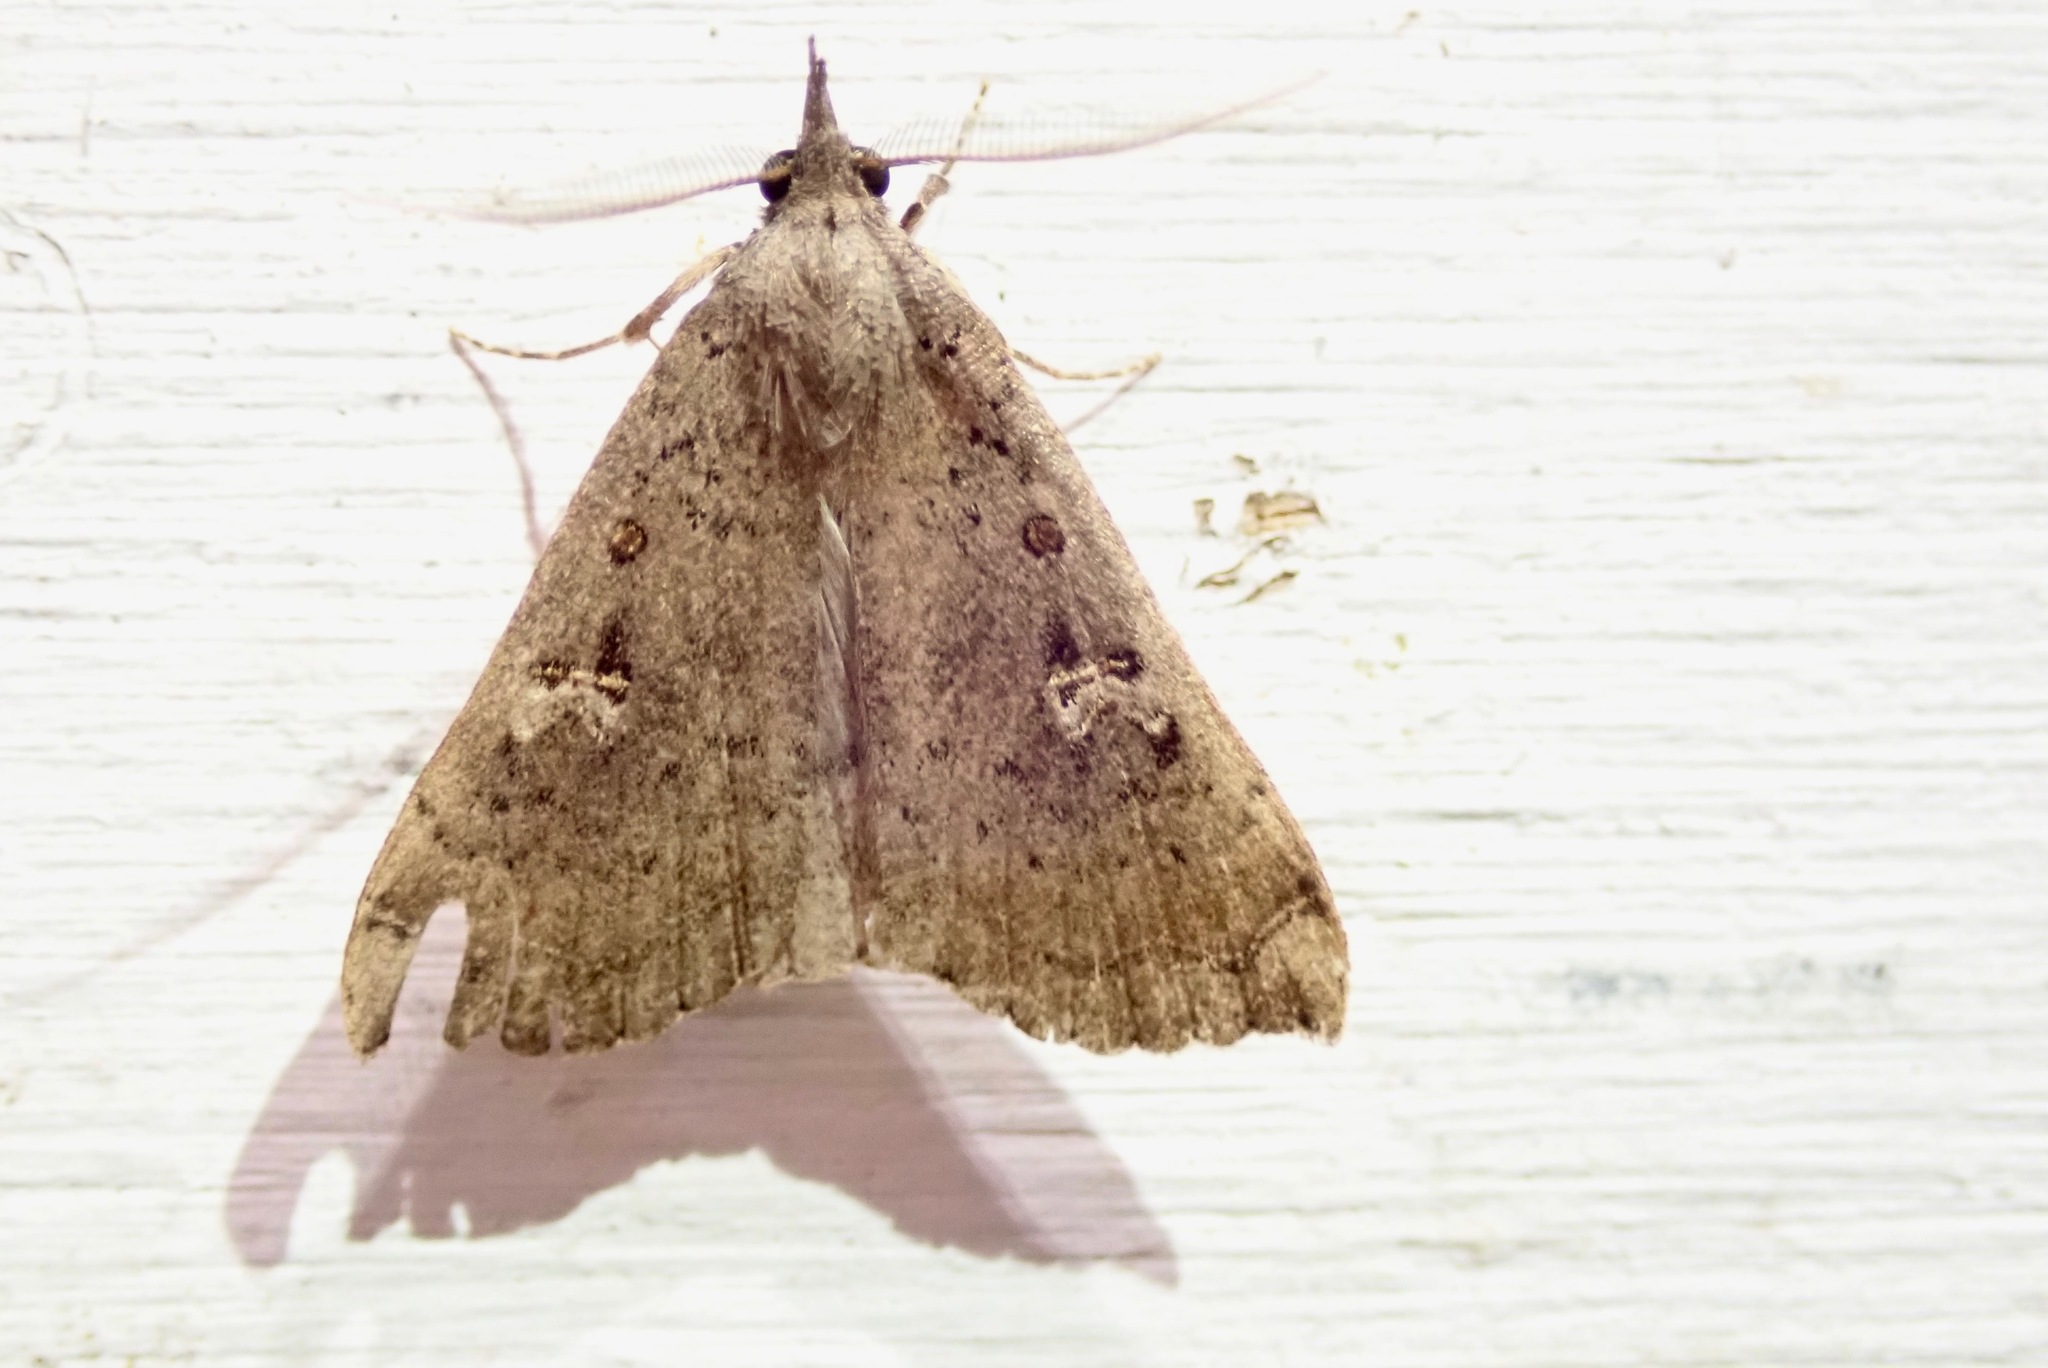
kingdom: Animalia
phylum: Arthropoda
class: Insecta
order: Lepidoptera
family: Erebidae
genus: Rhapsa
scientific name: Rhapsa scotosialis
